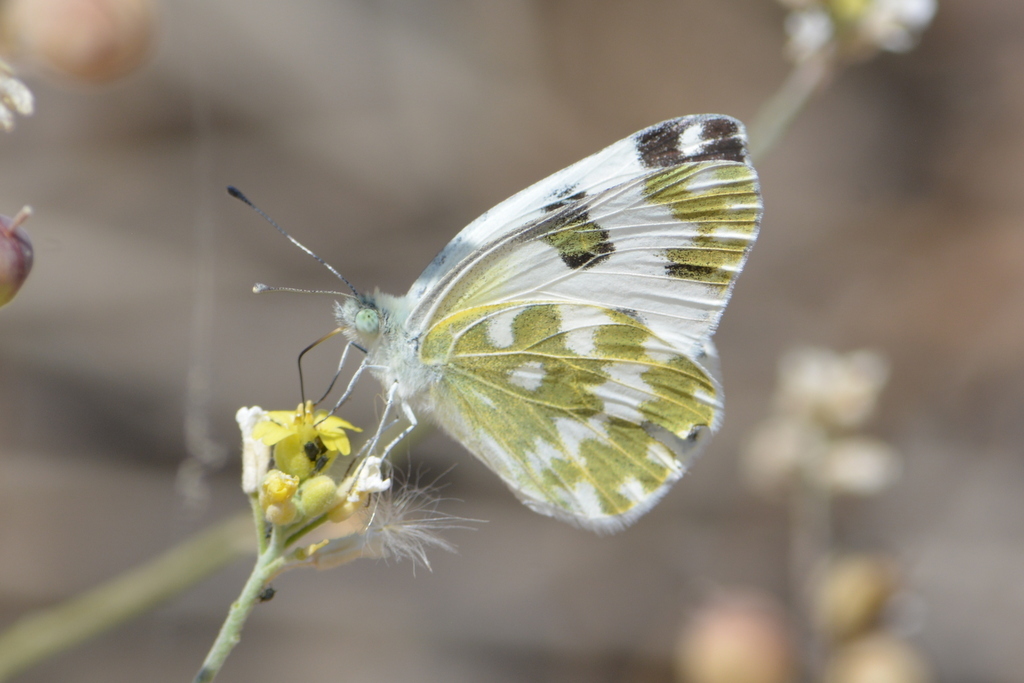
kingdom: Animalia
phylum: Arthropoda
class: Insecta
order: Lepidoptera
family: Pieridae
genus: Pontia
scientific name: Pontia edusa
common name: Eastern bath white
